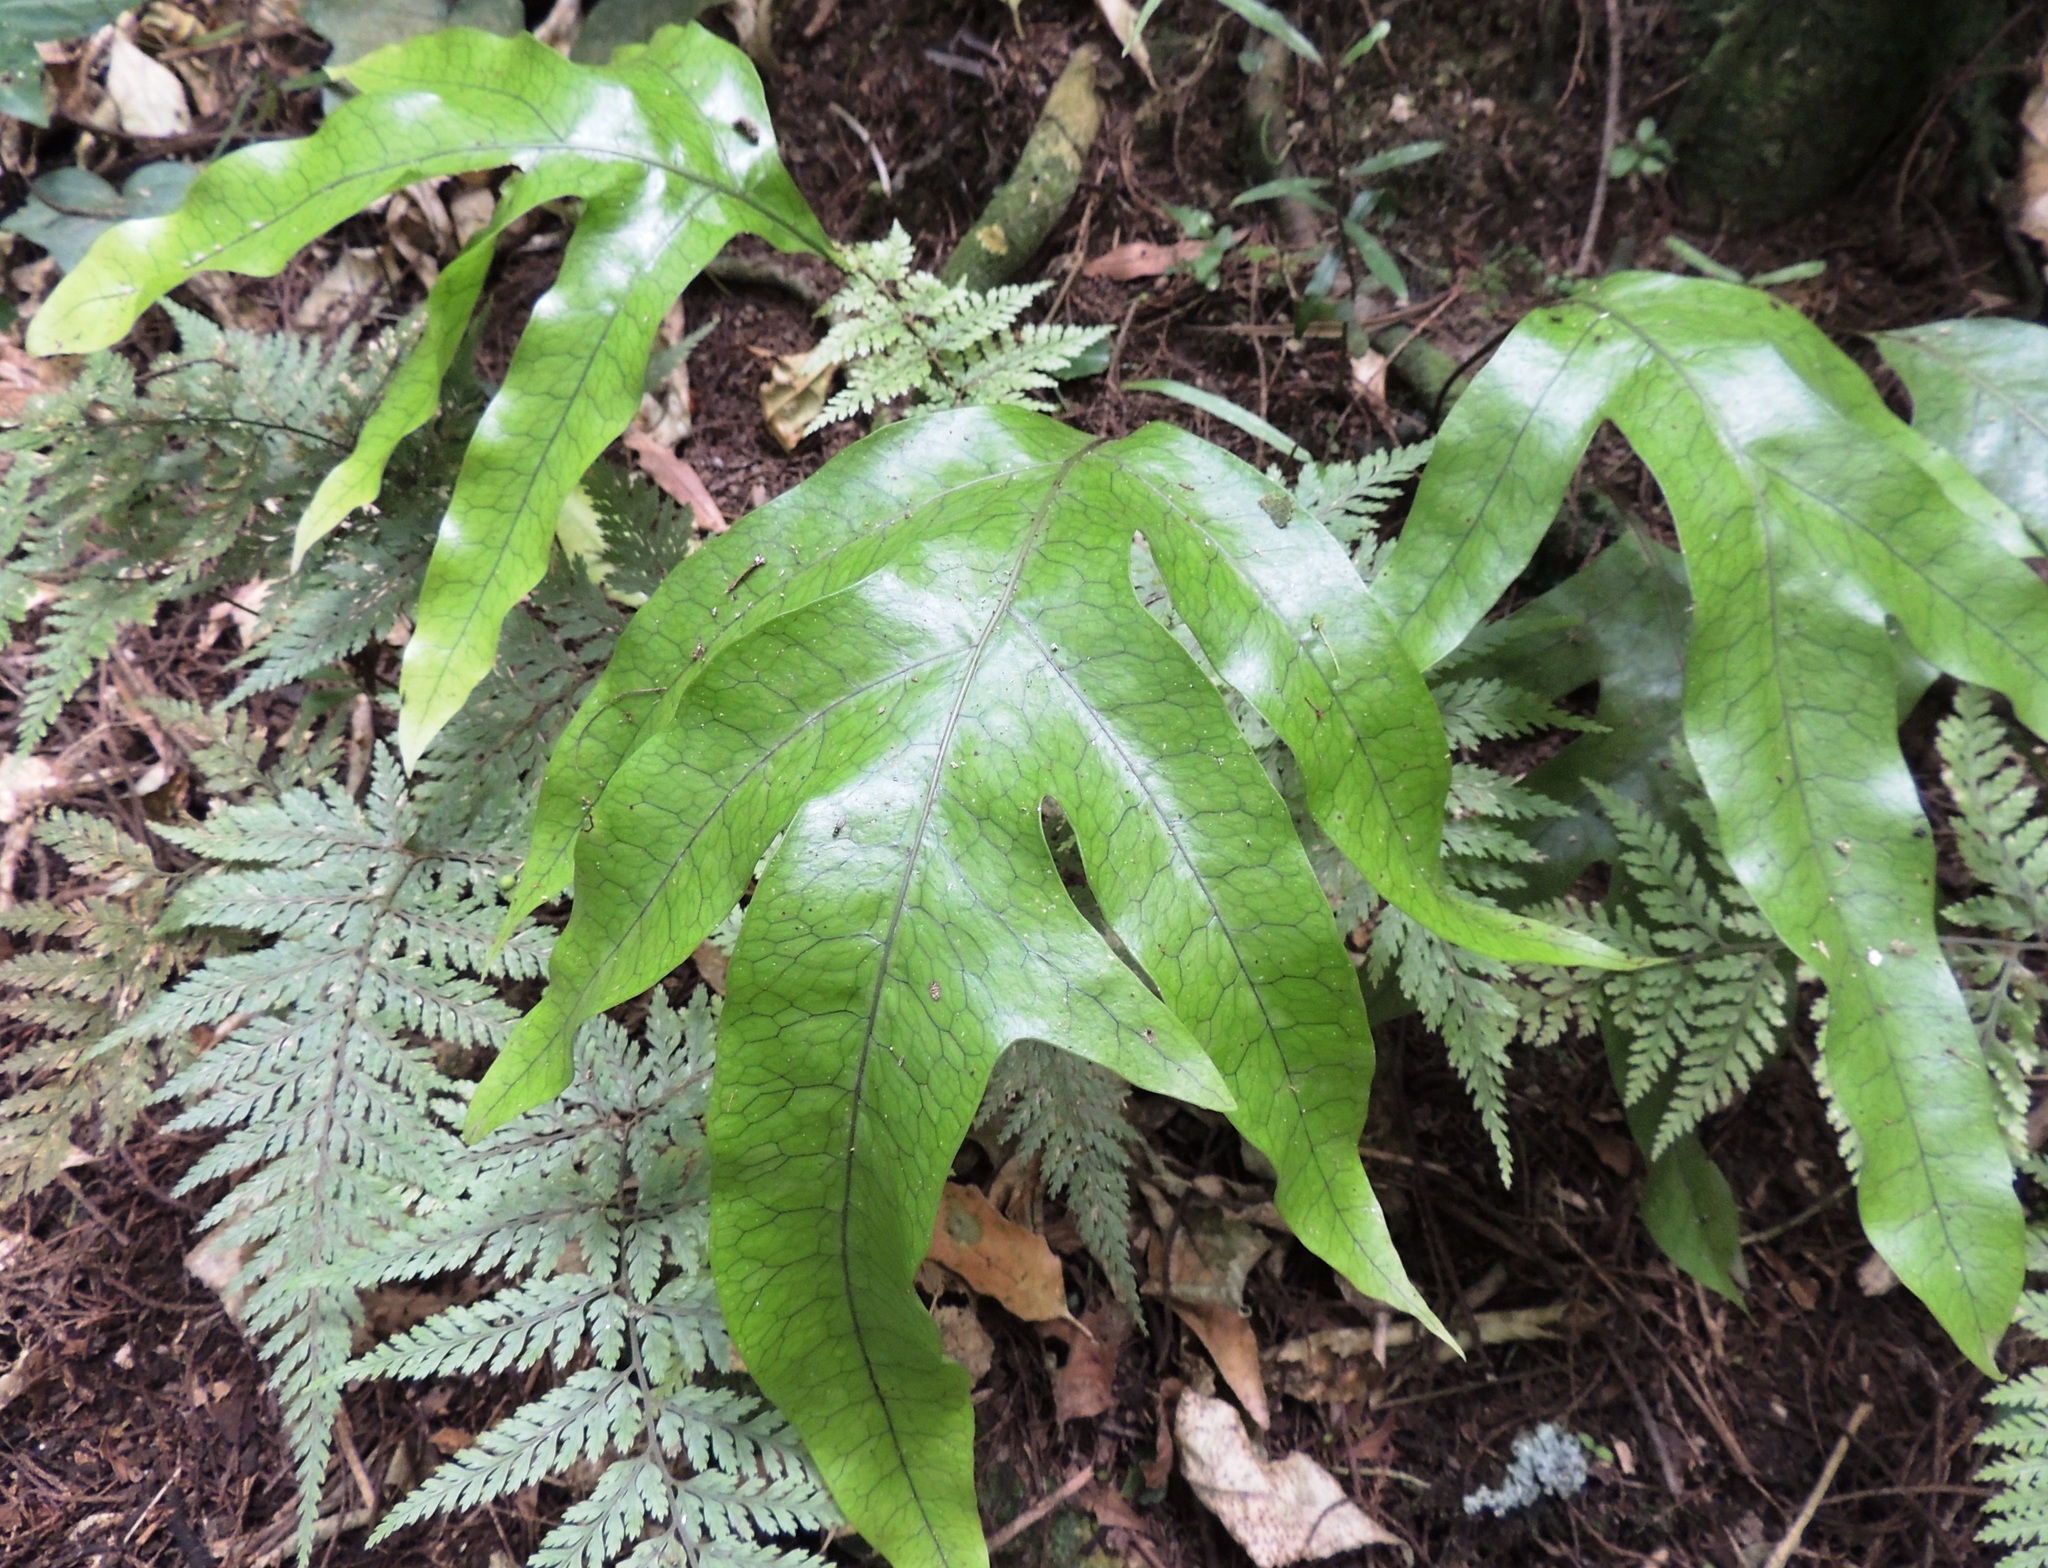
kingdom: Plantae
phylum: Tracheophyta
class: Polypodiopsida
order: Polypodiales
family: Polypodiaceae
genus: Lecanopteris
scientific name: Lecanopteris pustulata
